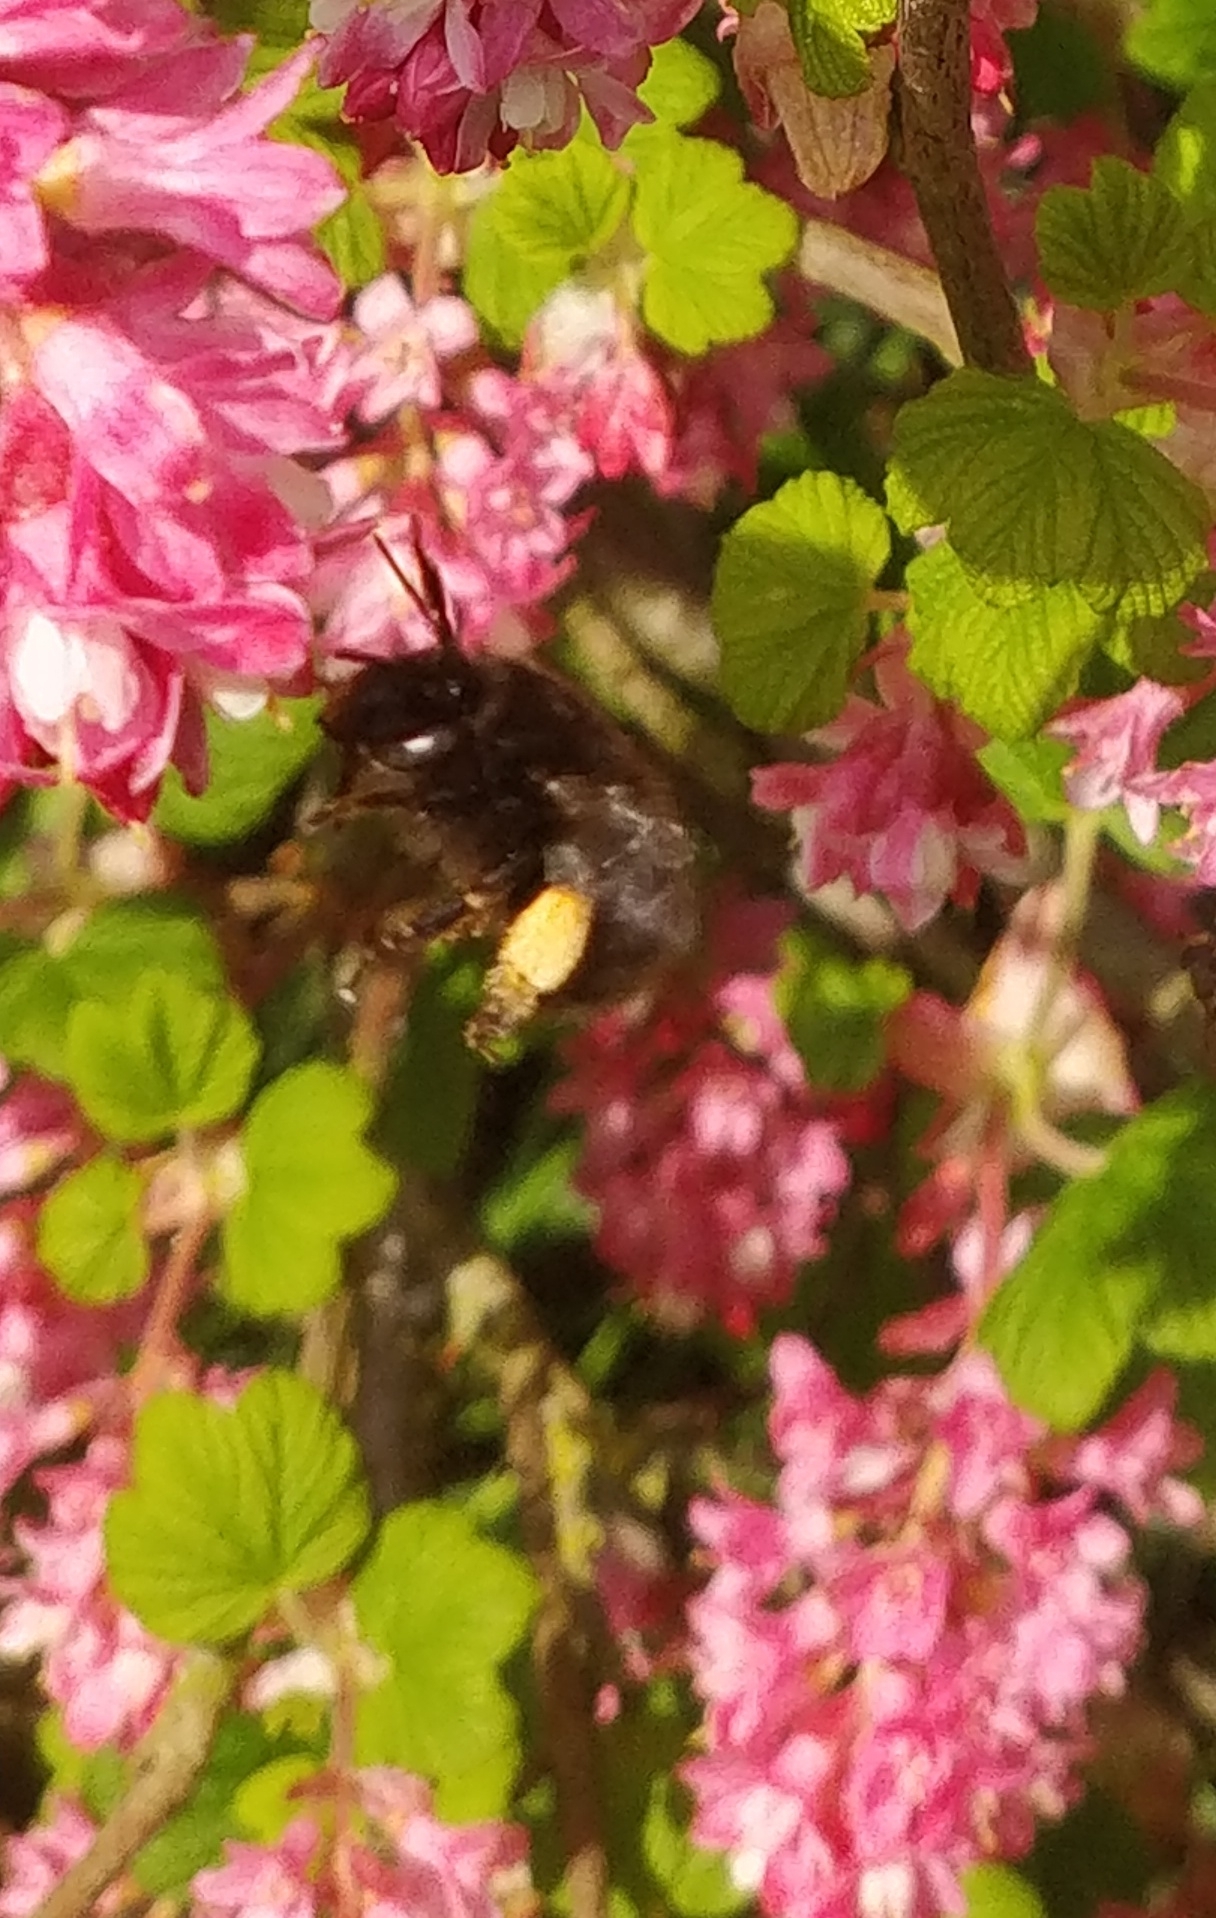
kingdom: Animalia
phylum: Arthropoda
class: Insecta
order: Hymenoptera
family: Apidae
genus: Anthophora
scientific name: Anthophora plumipes
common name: Hairy-footed flower bee
